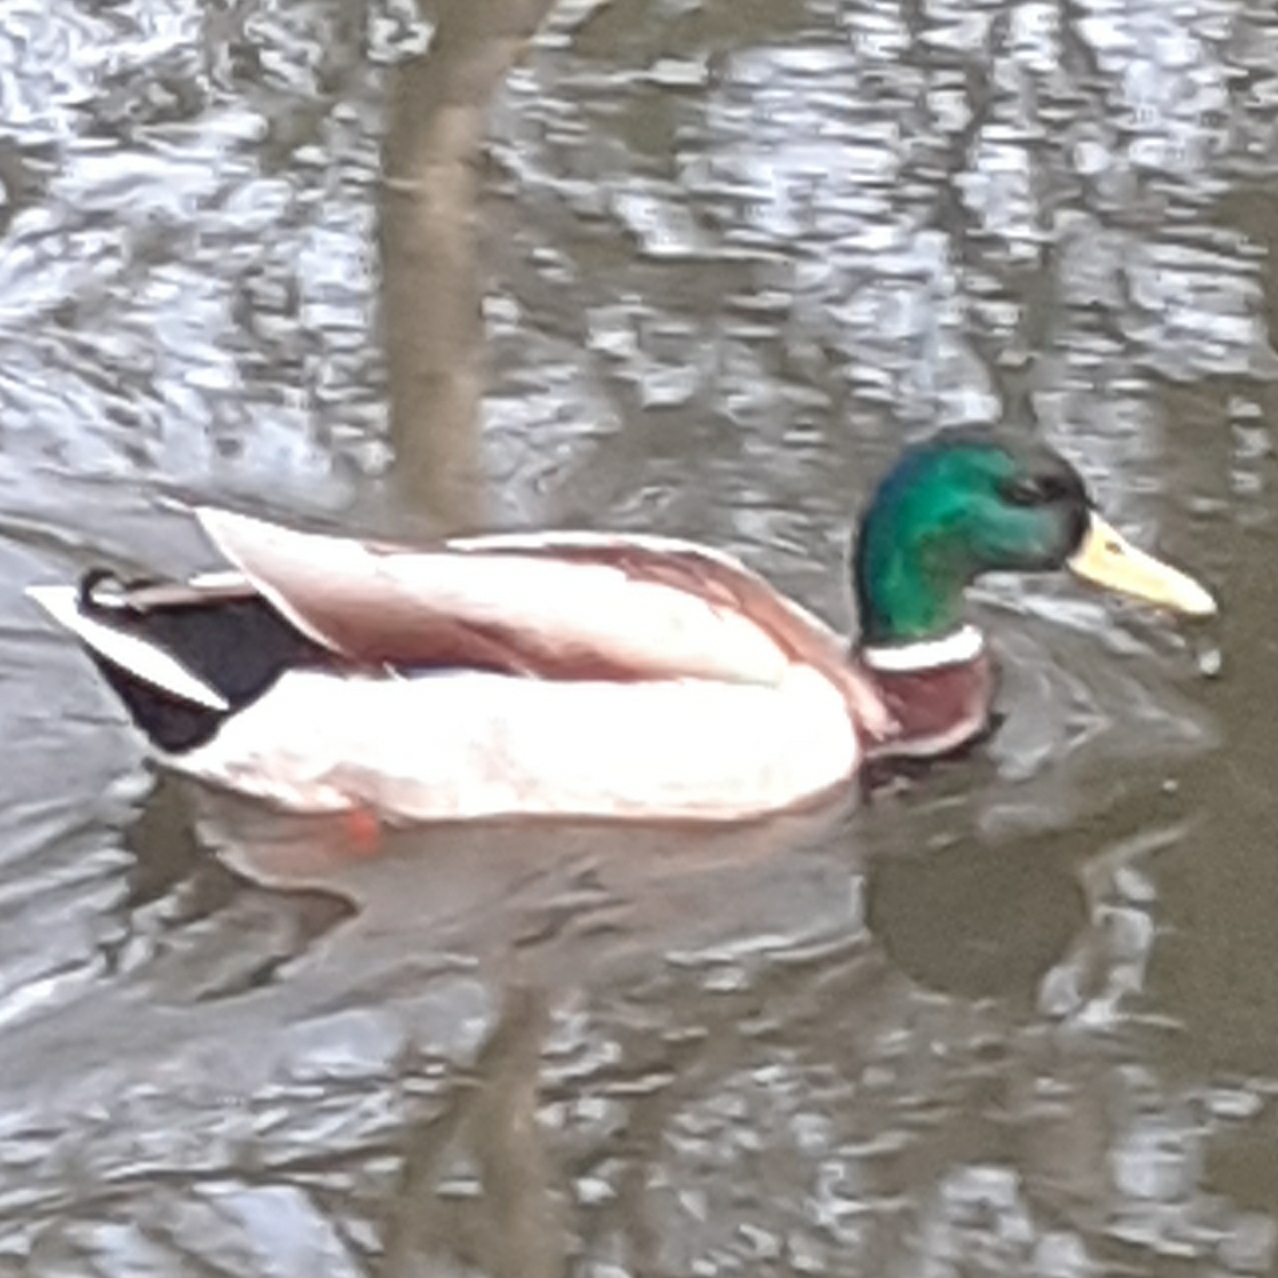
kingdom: Animalia
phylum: Chordata
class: Aves
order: Anseriformes
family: Anatidae
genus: Anas
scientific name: Anas platyrhynchos
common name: Mallard
